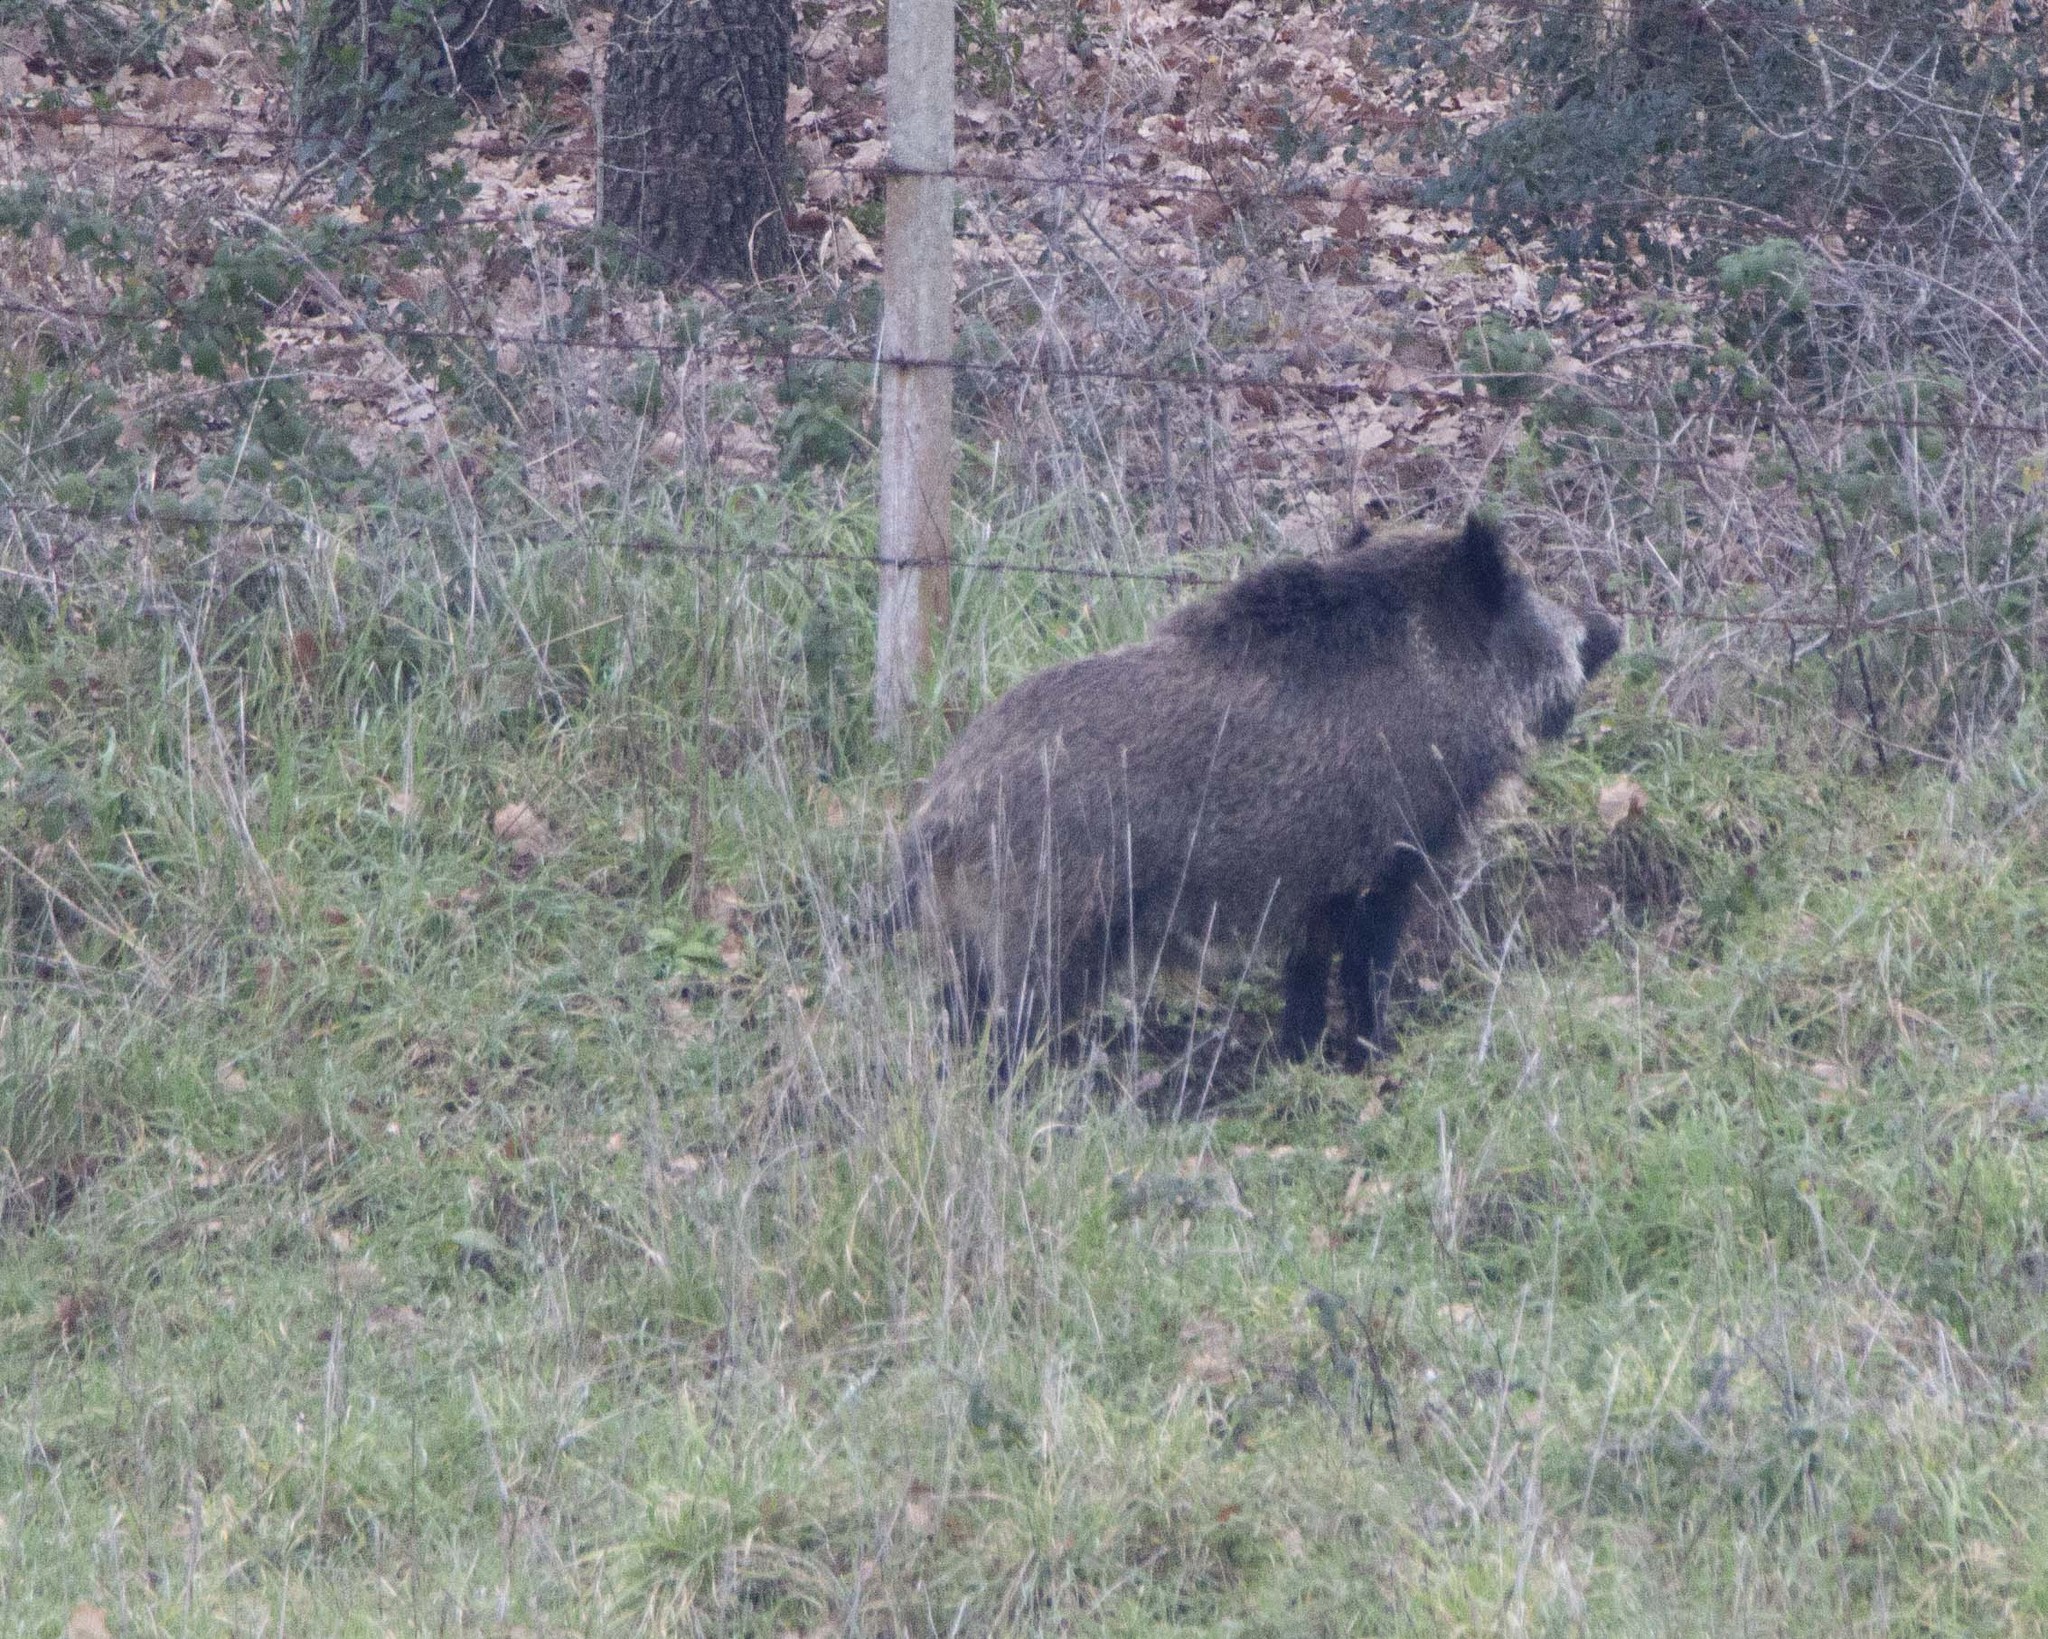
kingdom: Animalia
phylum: Chordata
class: Mammalia
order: Artiodactyla
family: Suidae
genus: Sus
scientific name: Sus scrofa
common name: Wild boar
